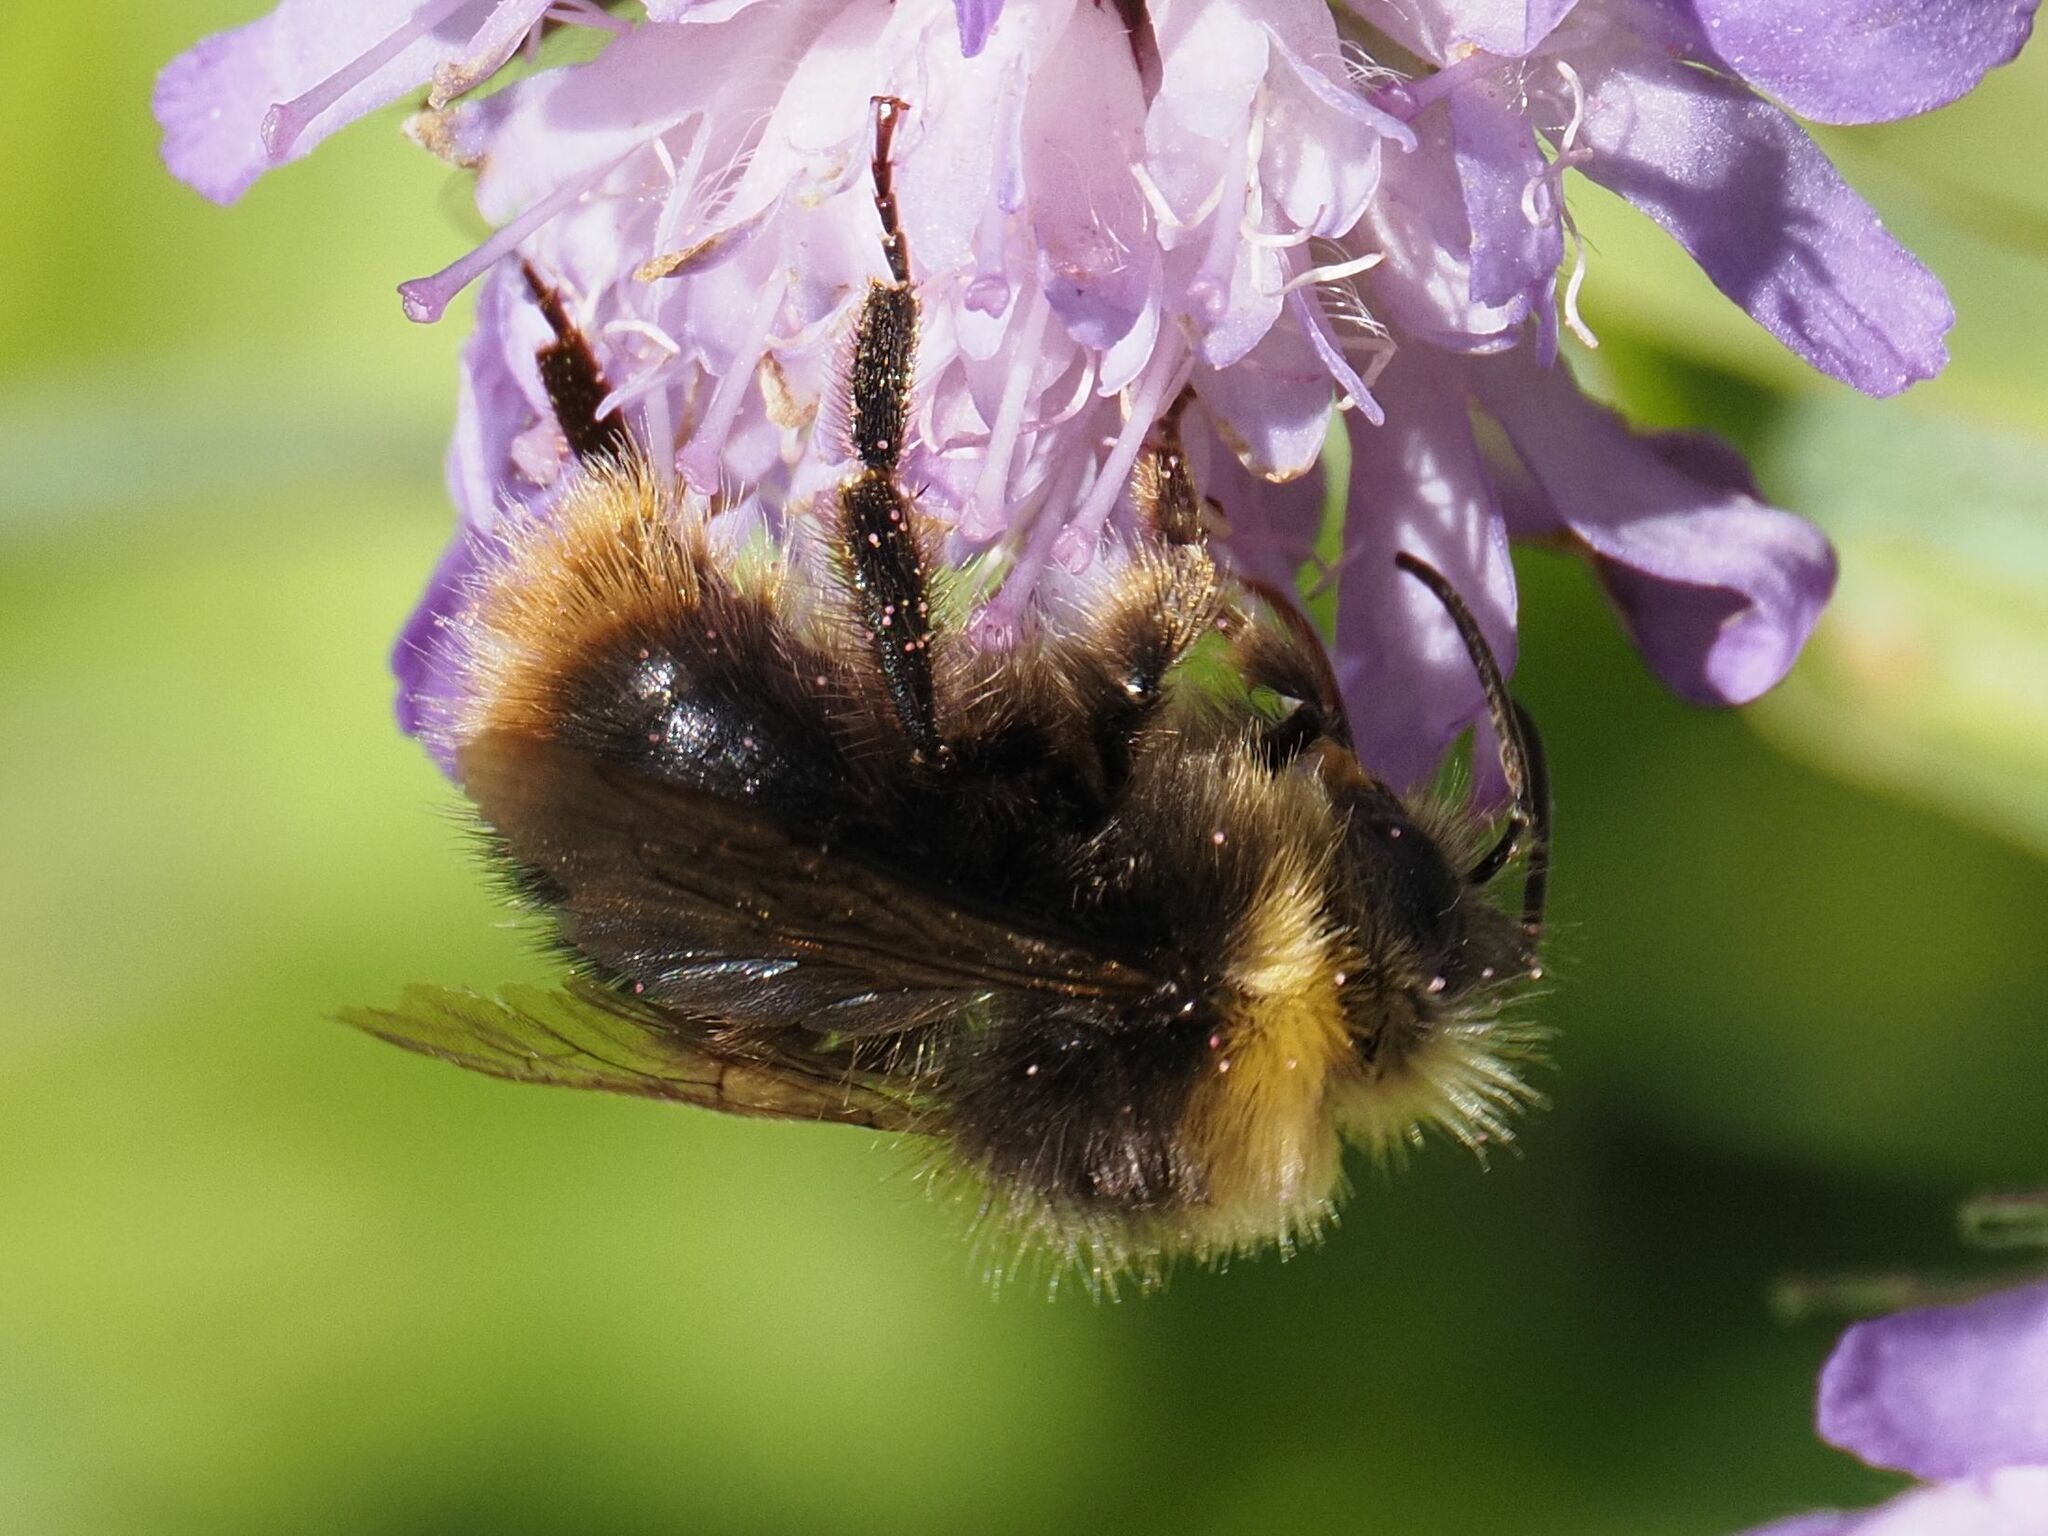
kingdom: Animalia
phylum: Arthropoda
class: Insecta
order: Hymenoptera
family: Apidae
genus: Bombus
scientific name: Bombus pratorum
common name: Early humble-bee
